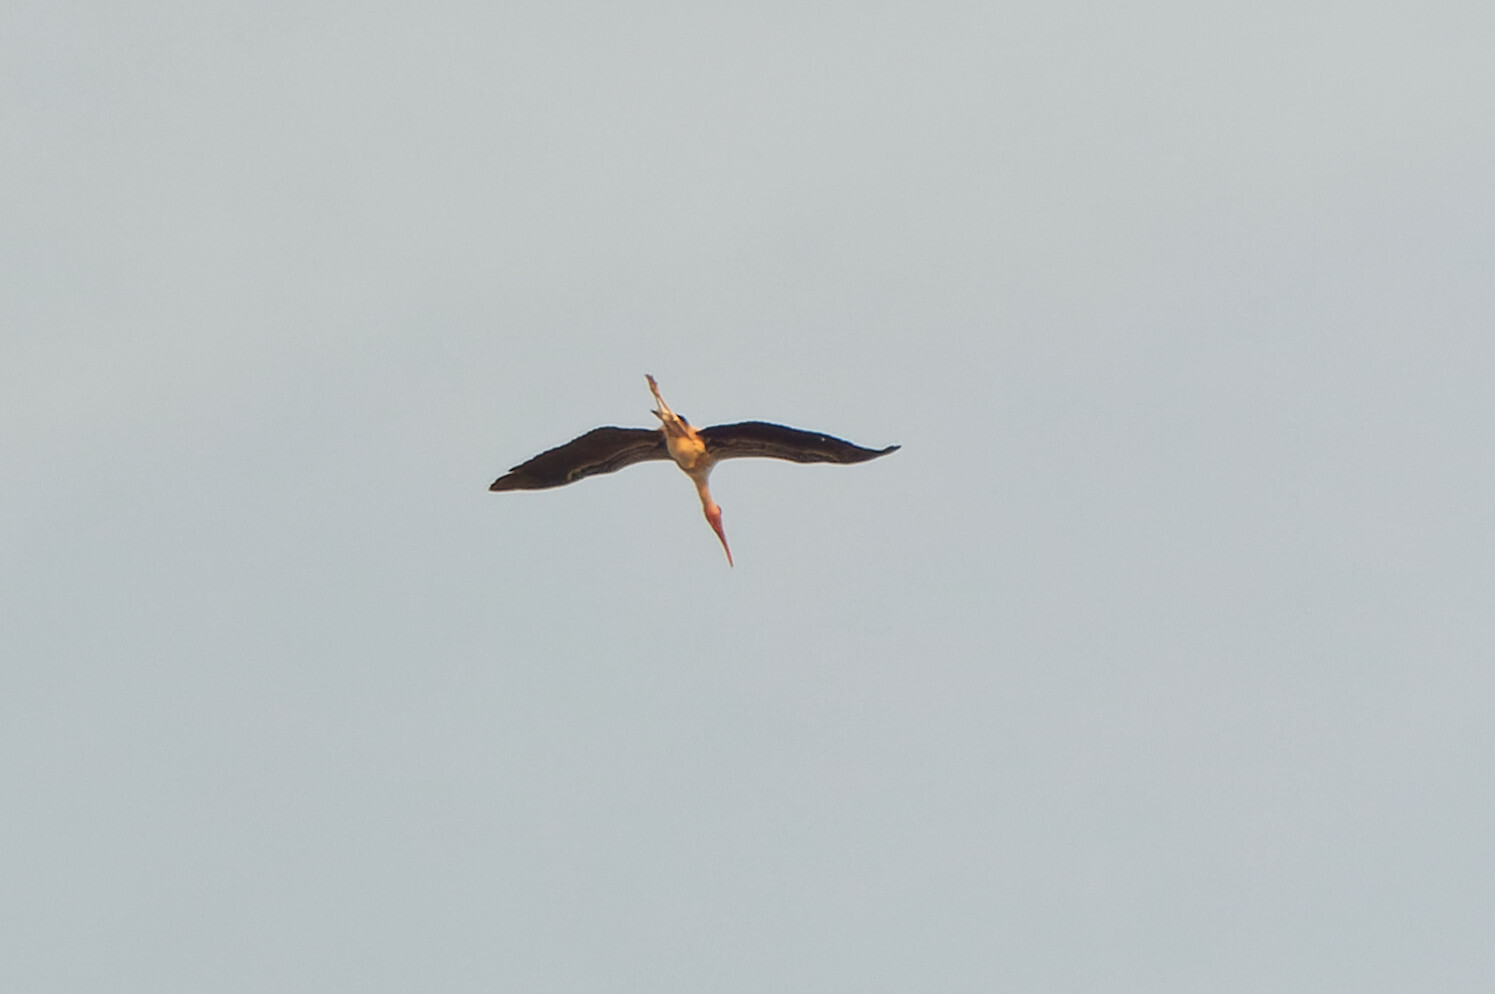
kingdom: Animalia
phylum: Chordata
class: Aves
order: Ciconiiformes
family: Ciconiidae
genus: Mycteria
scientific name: Mycteria leucocephala
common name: Painted stork
